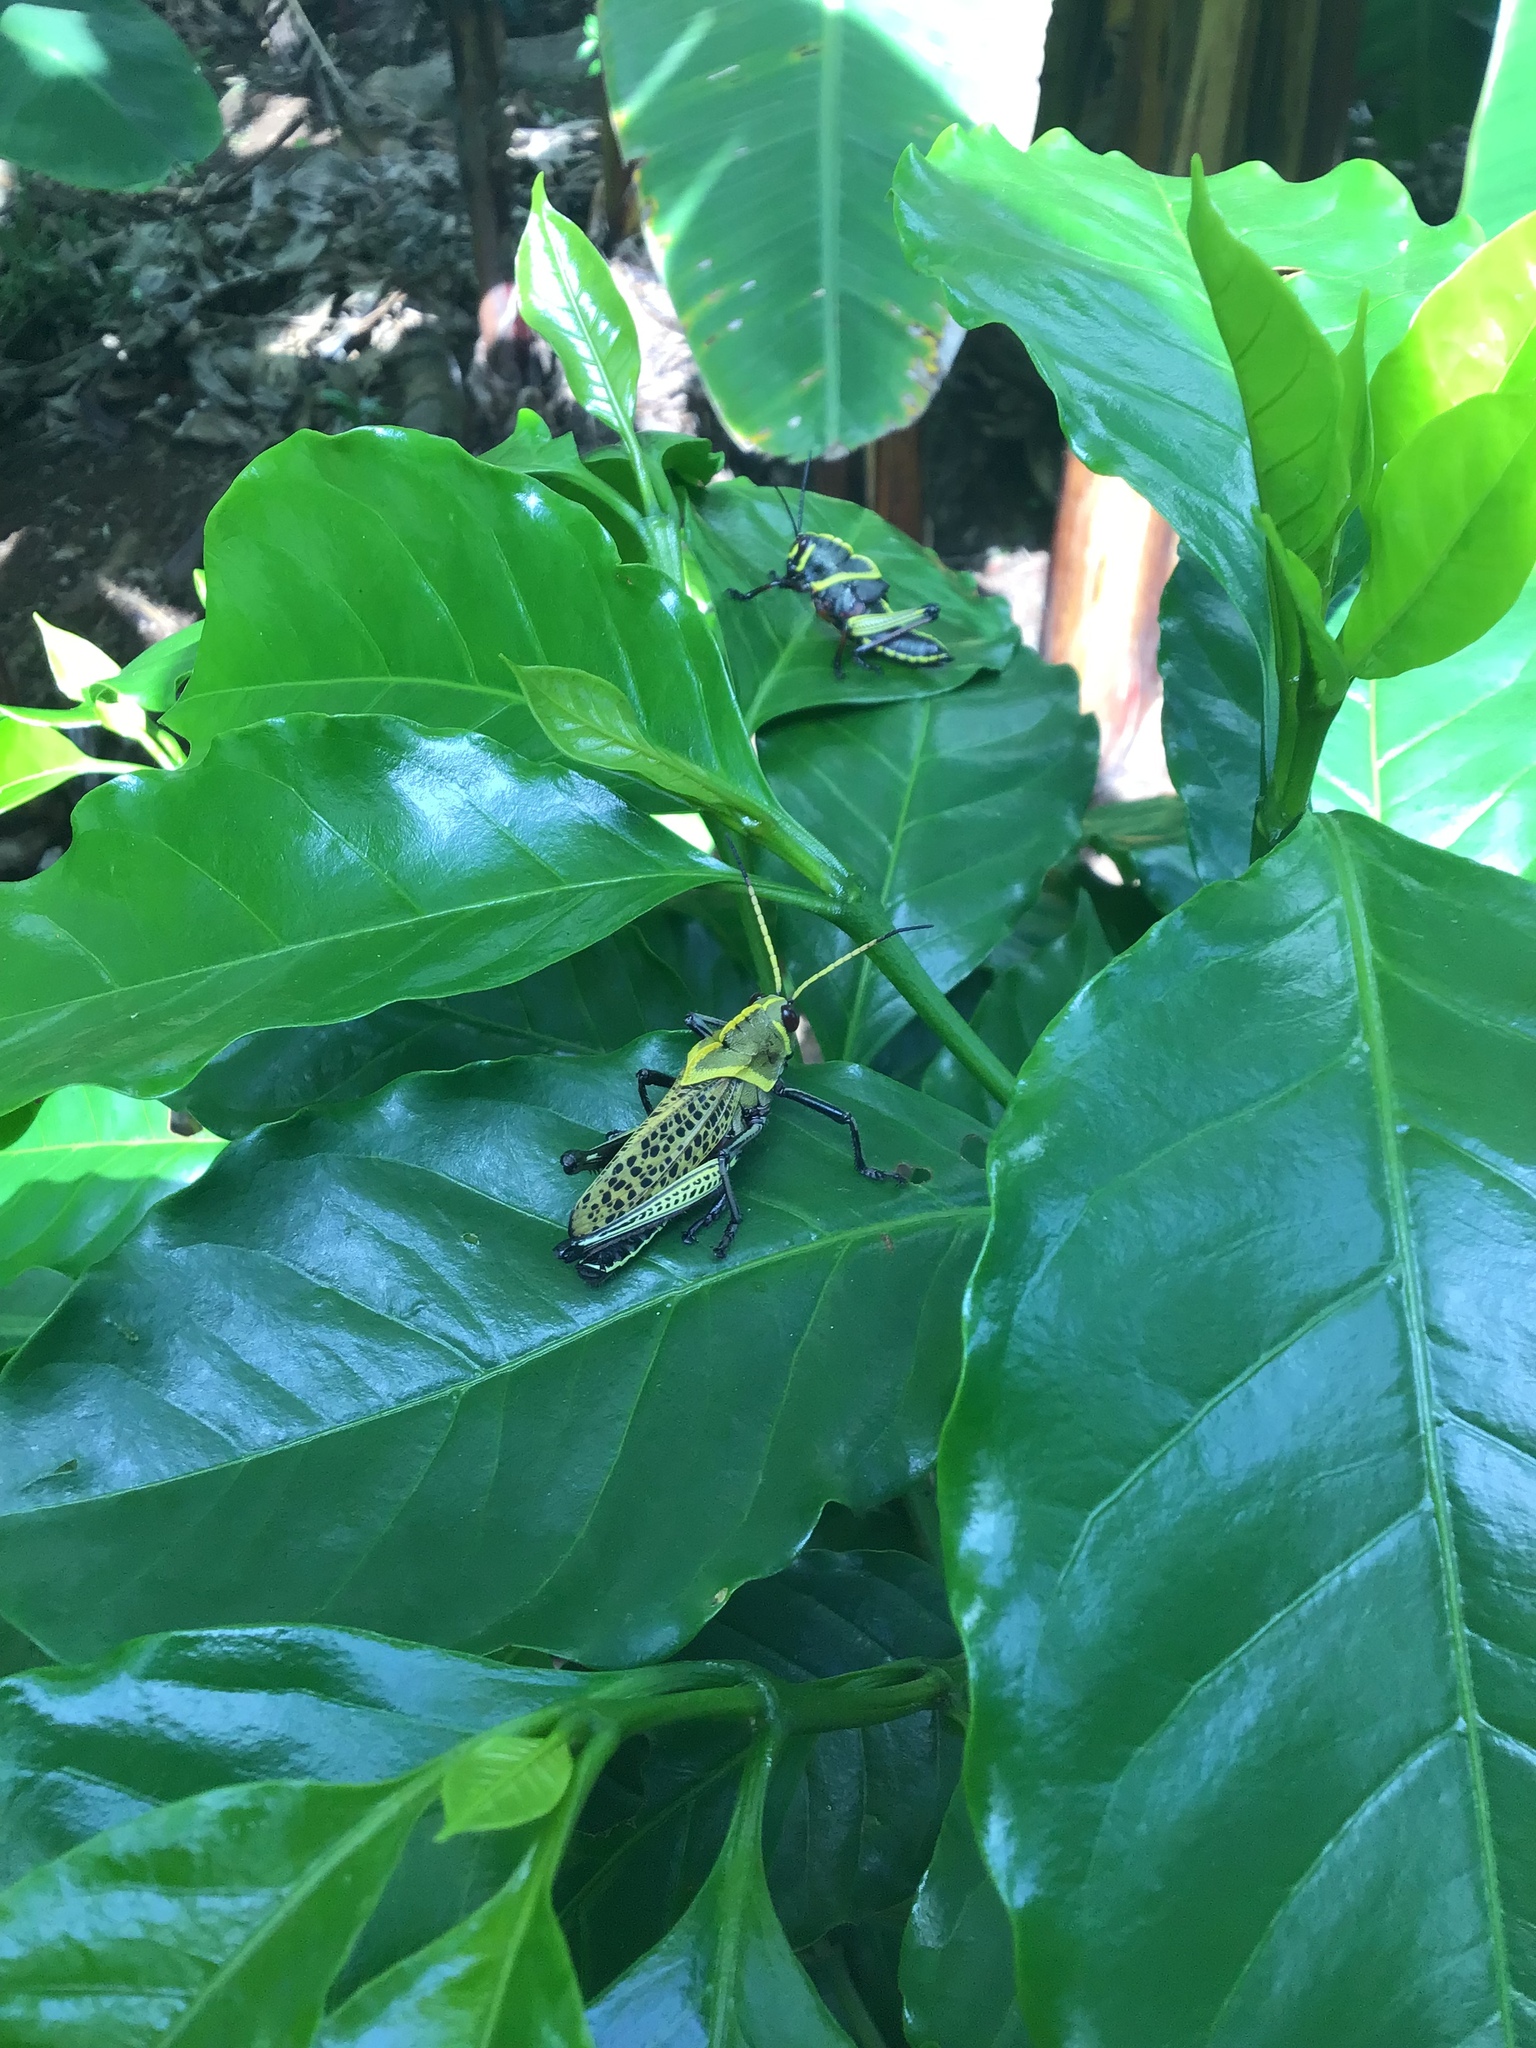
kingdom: Animalia
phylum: Arthropoda
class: Insecta
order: Orthoptera
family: Romaleidae
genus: Romalea
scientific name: Romalea
